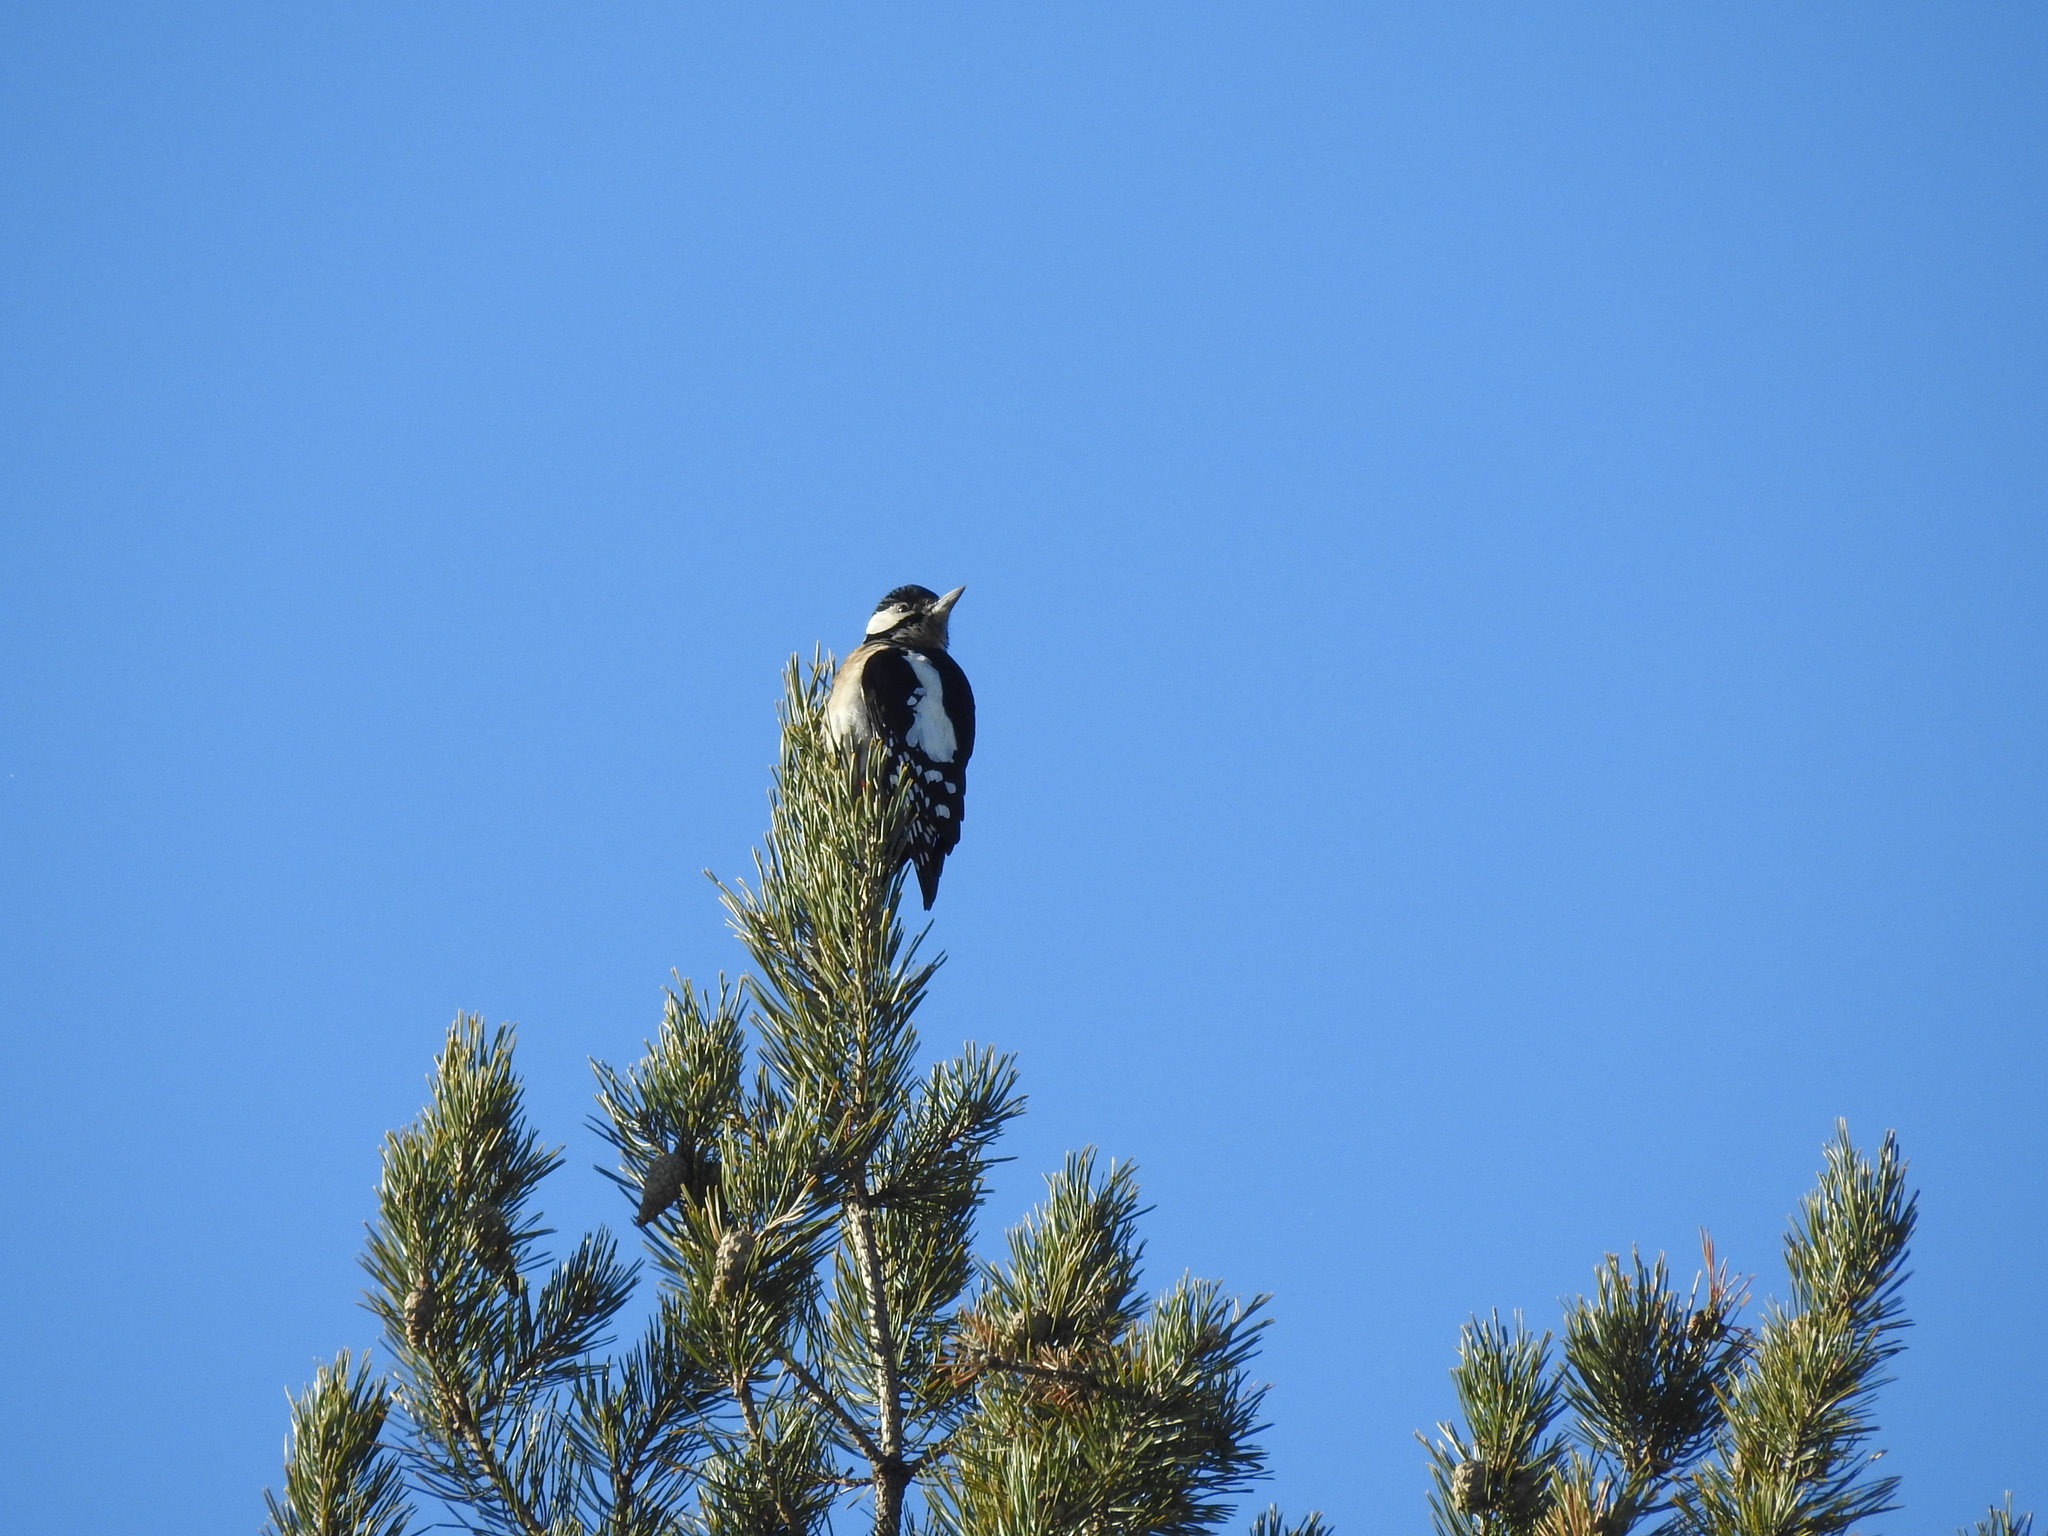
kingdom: Animalia
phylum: Chordata
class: Aves
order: Piciformes
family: Picidae
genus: Dendrocopos
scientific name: Dendrocopos major
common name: Great spotted woodpecker
